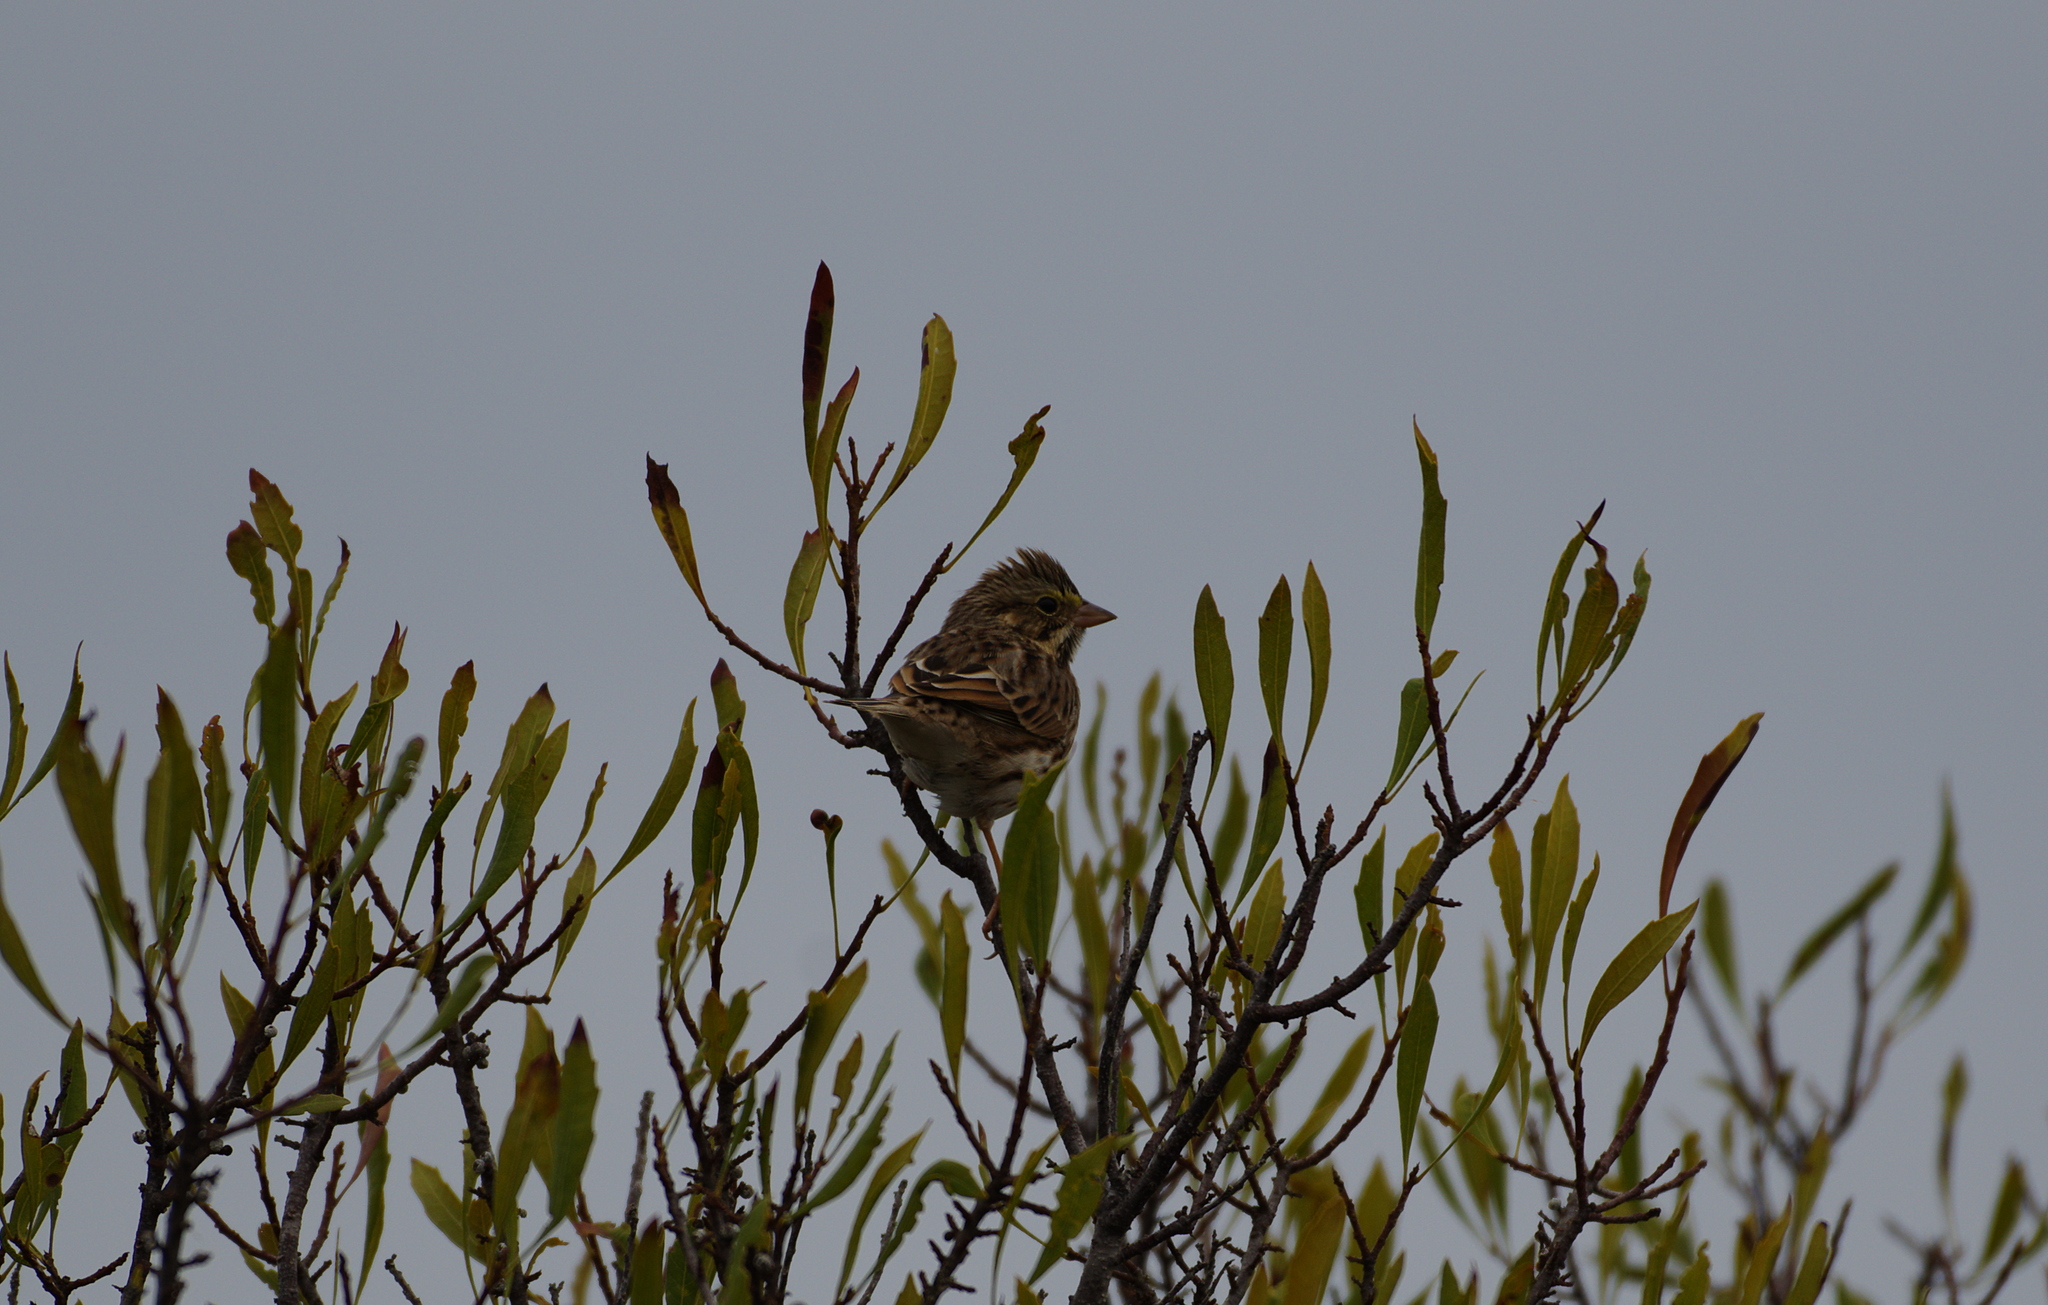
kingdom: Animalia
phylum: Chordata
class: Aves
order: Passeriformes
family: Passerellidae
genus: Passerculus
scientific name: Passerculus sandwichensis
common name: Savannah sparrow
